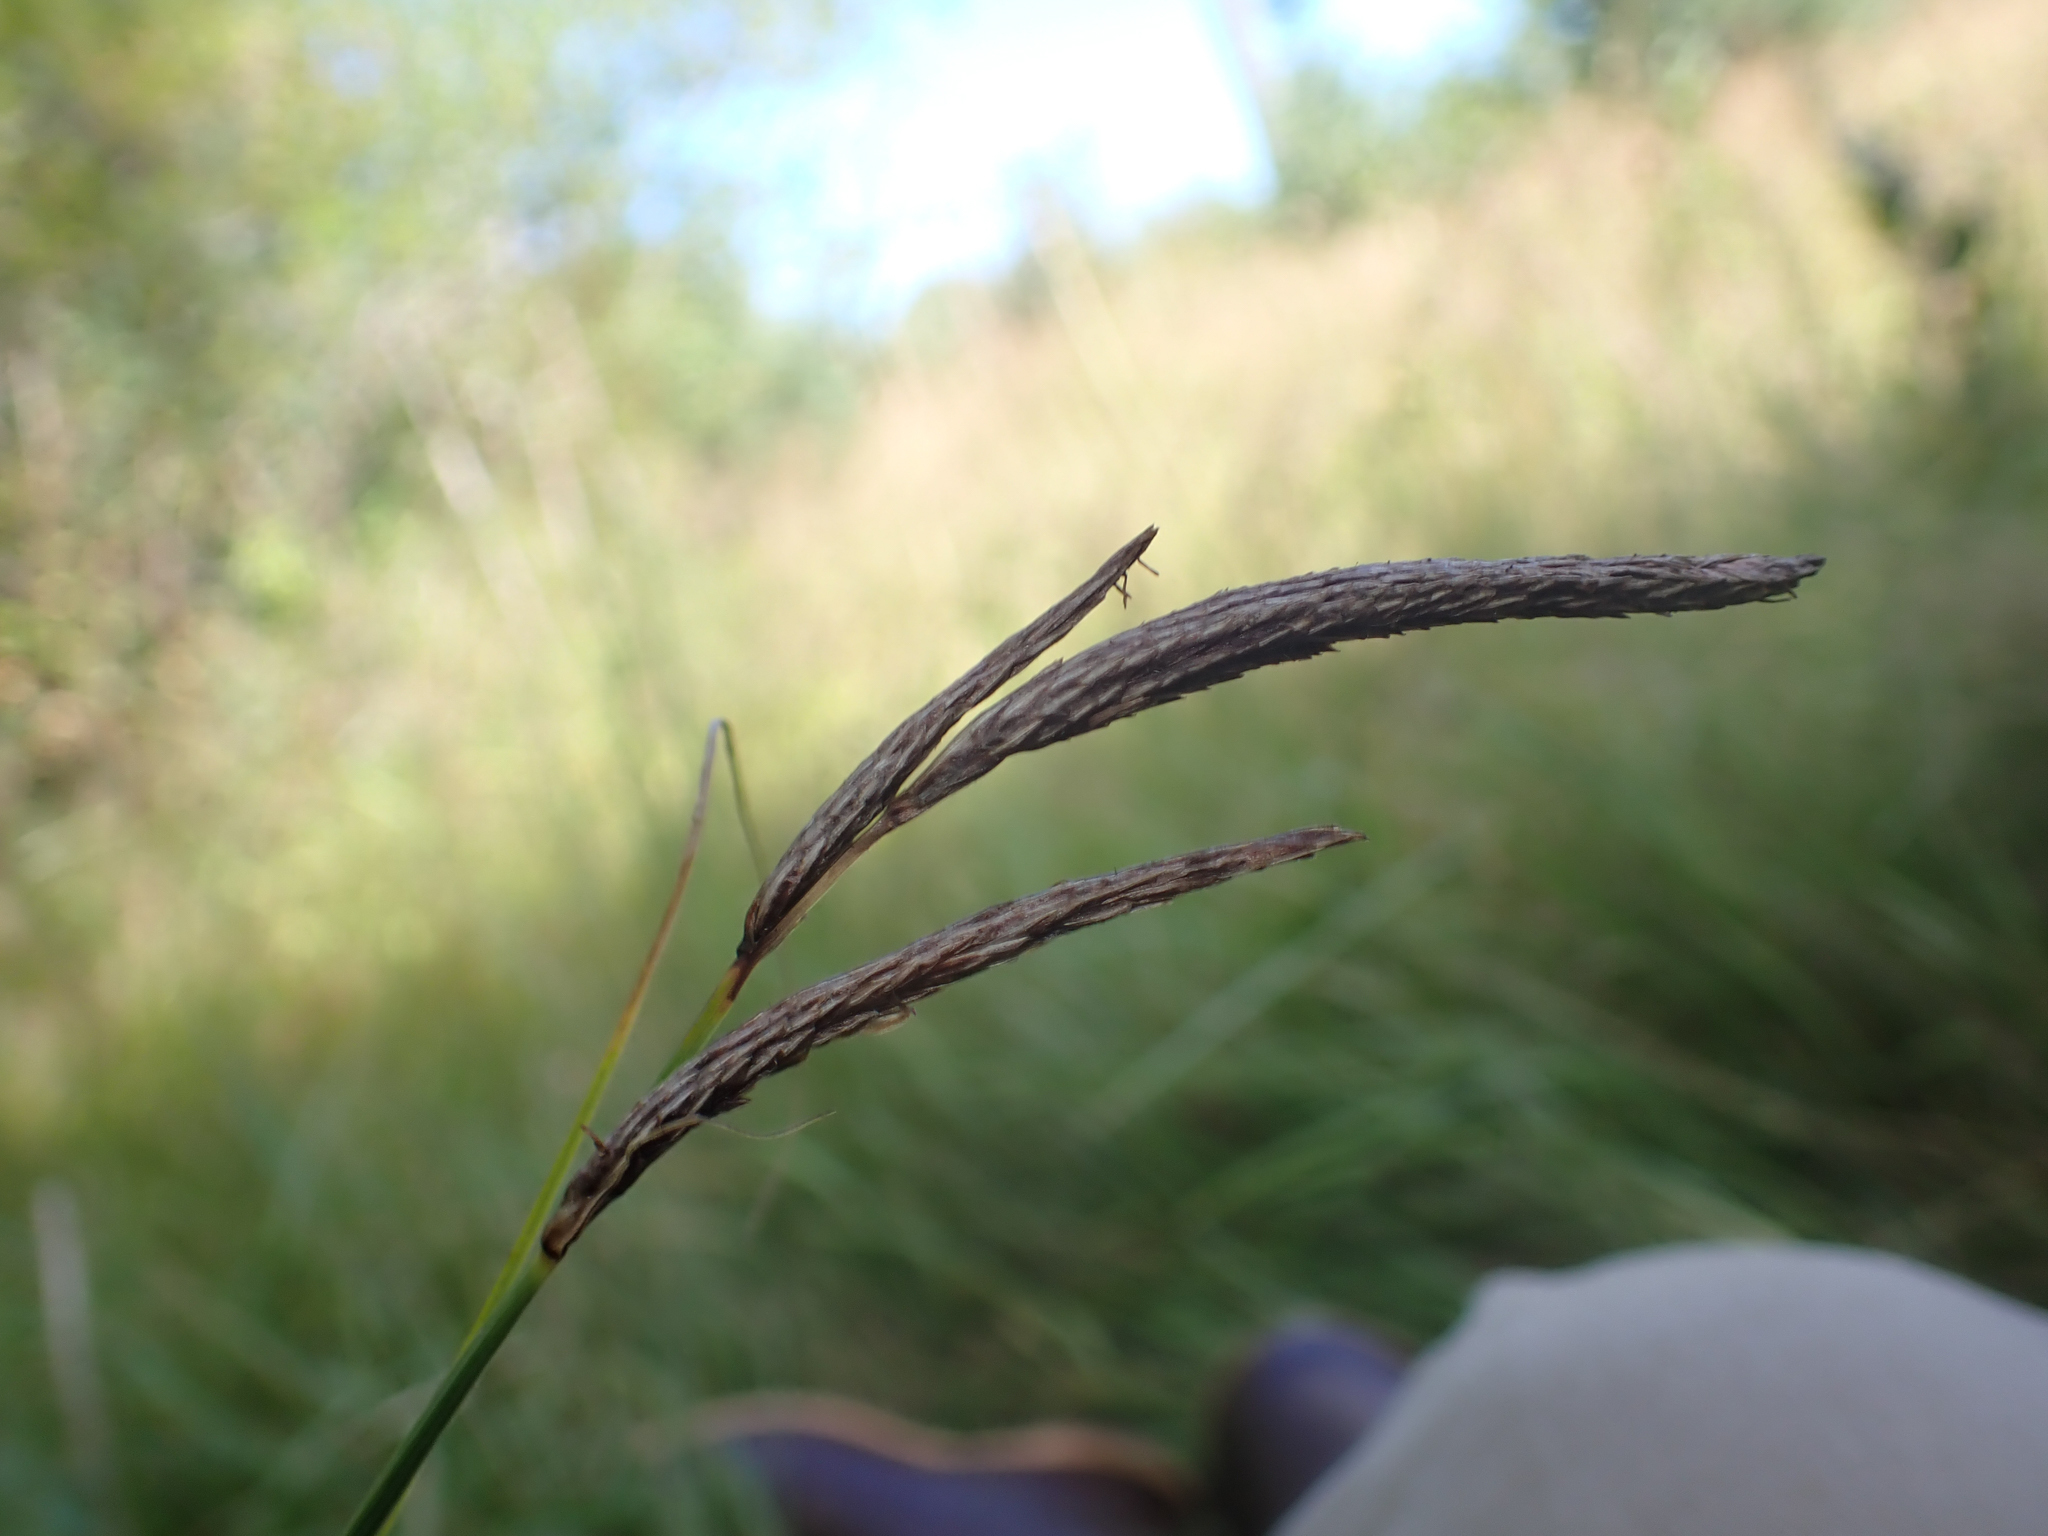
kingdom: Plantae
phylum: Tracheophyta
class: Liliopsida
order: Poales
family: Cyperaceae
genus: Carex
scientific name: Carex obnupta
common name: Slough sedge
